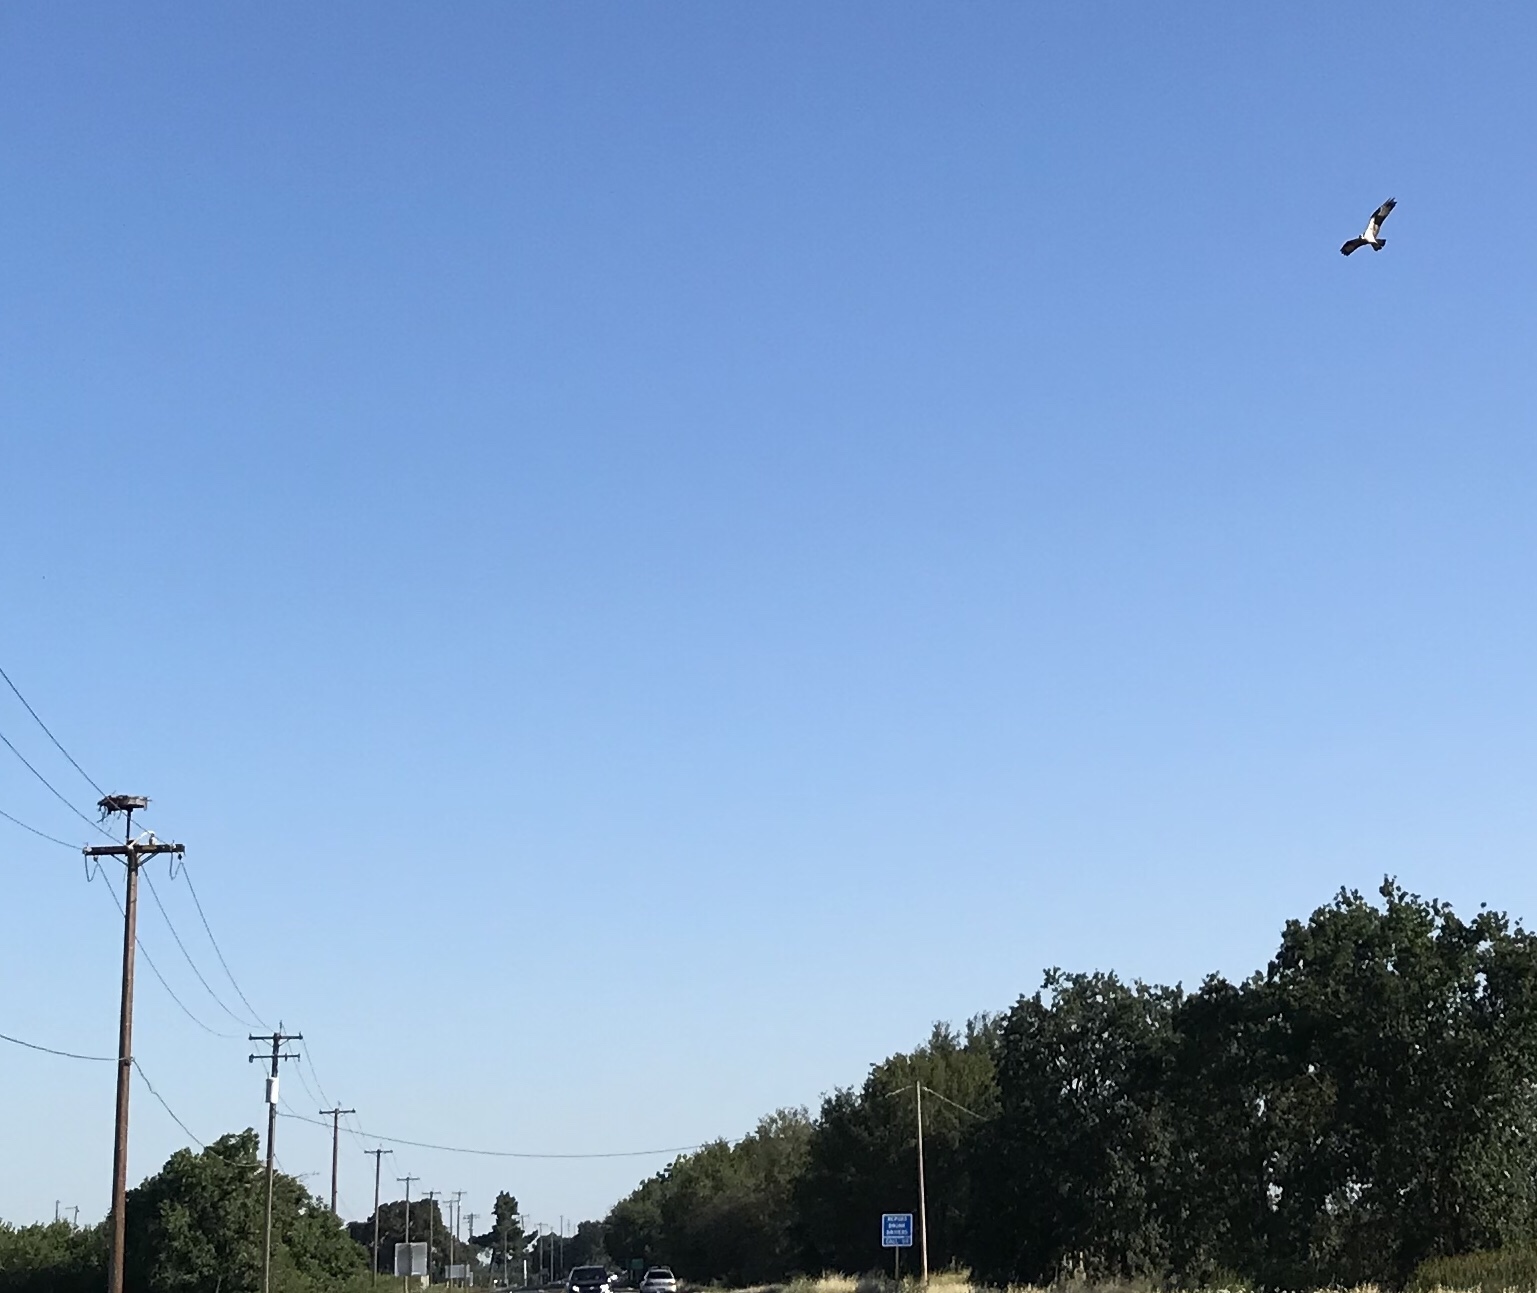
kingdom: Animalia
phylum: Chordata
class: Aves
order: Accipitriformes
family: Pandionidae
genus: Pandion
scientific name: Pandion haliaetus
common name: Osprey
